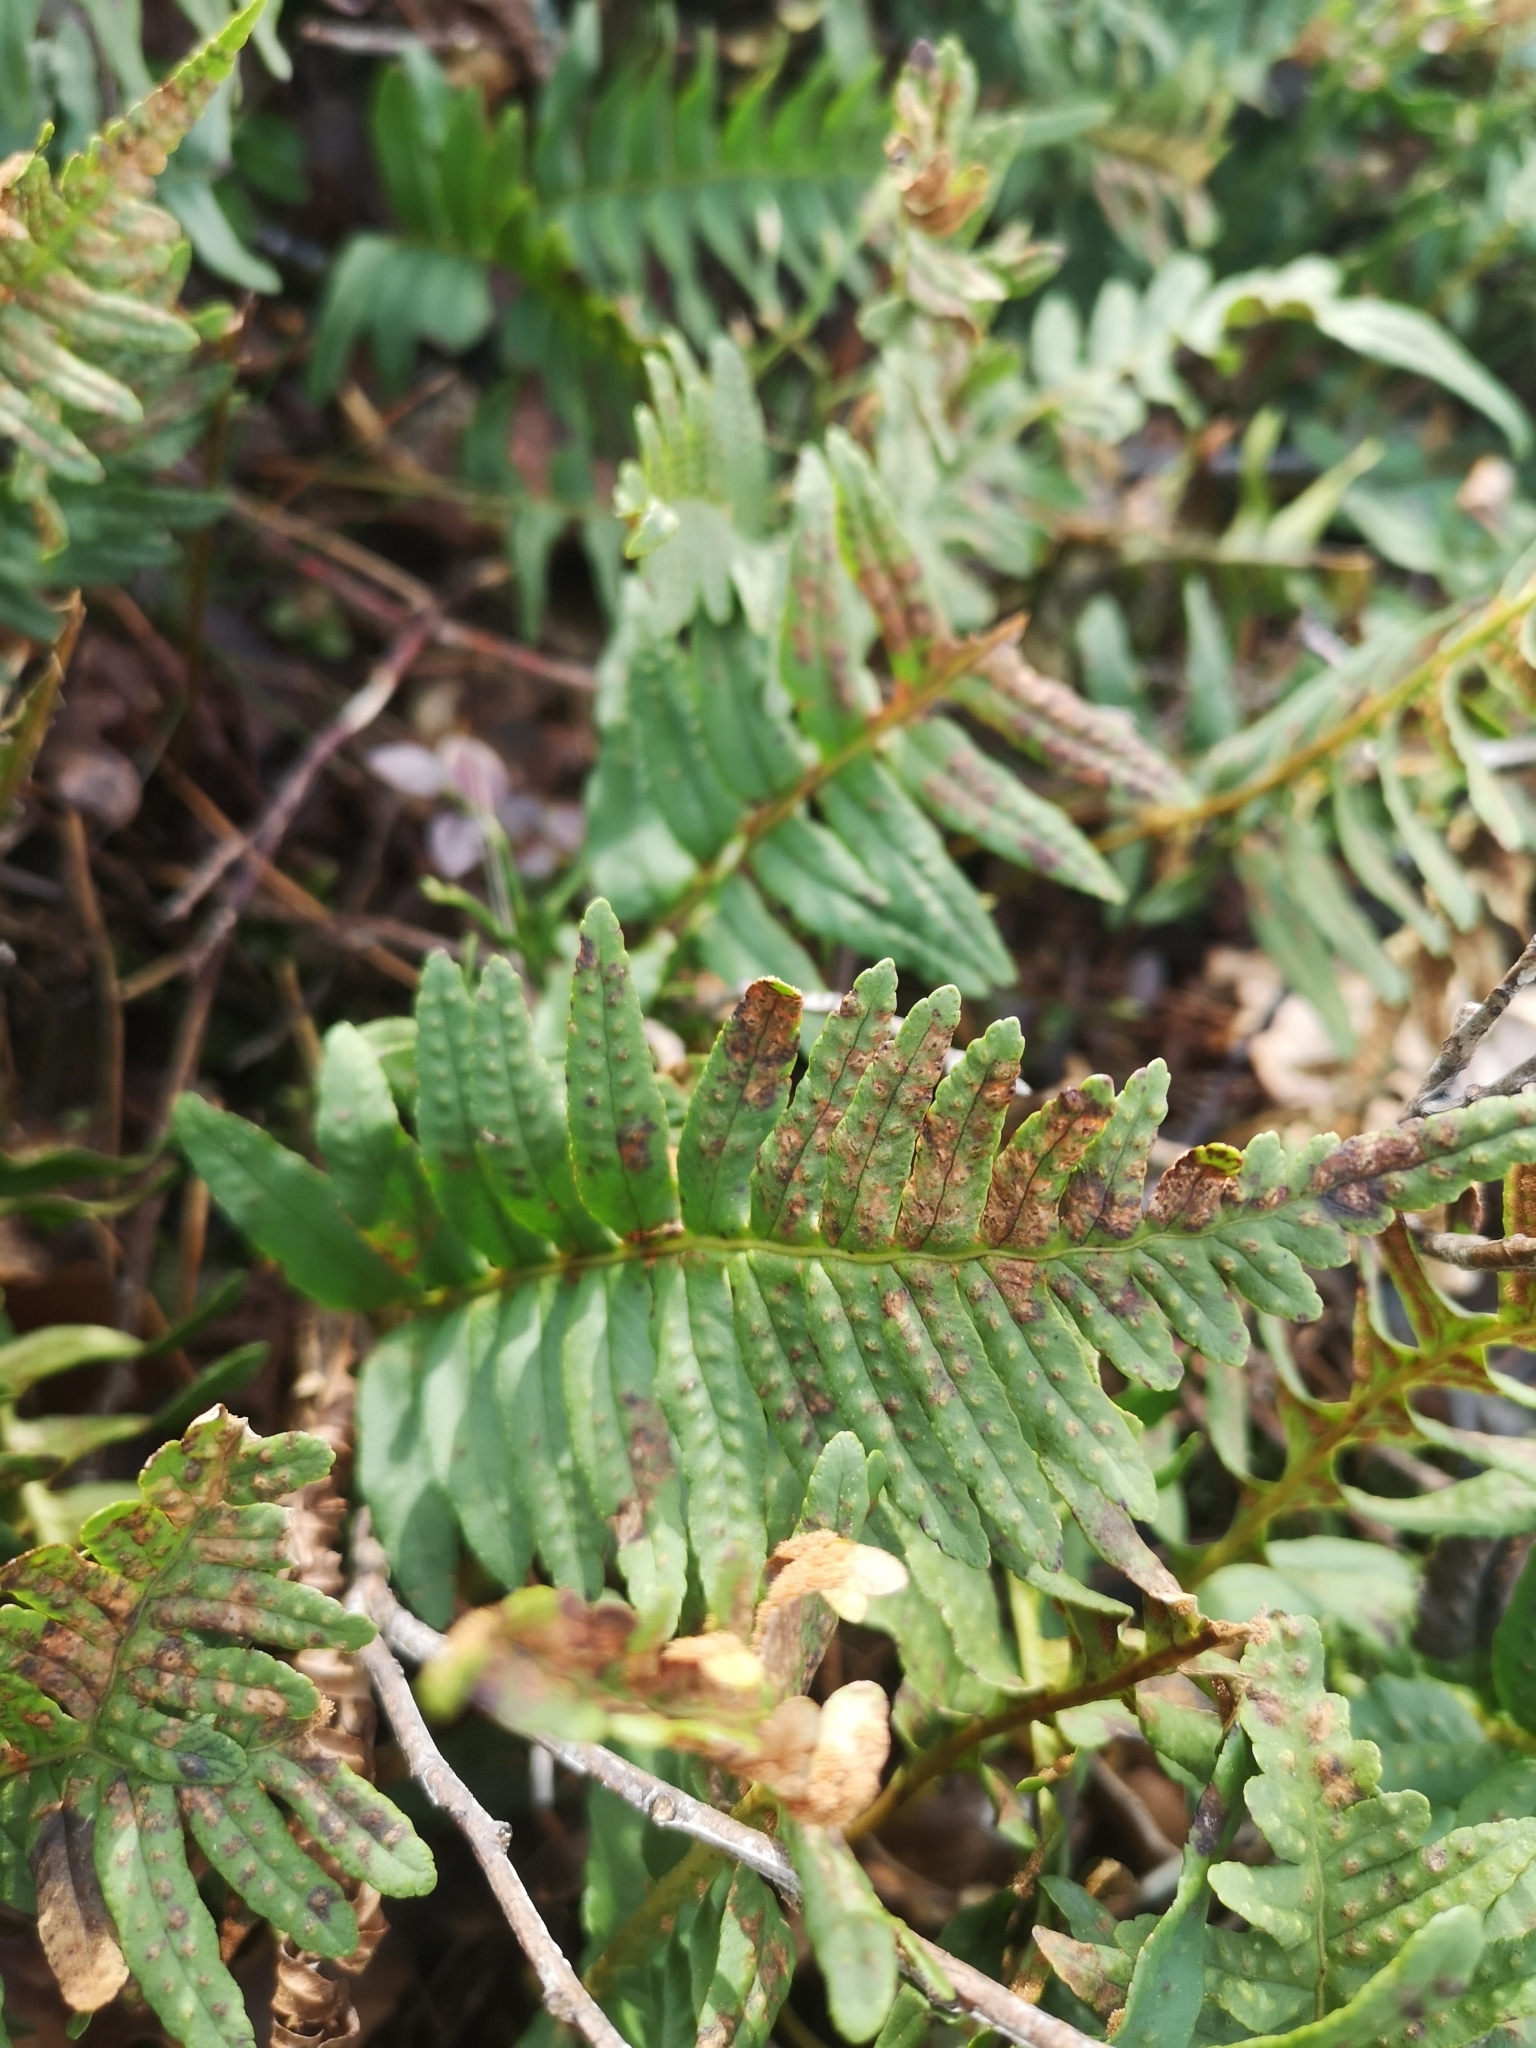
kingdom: Plantae
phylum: Tracheophyta
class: Polypodiopsida
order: Polypodiales
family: Polypodiaceae
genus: Polypodium
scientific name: Polypodium vulgare
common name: Common polypody
